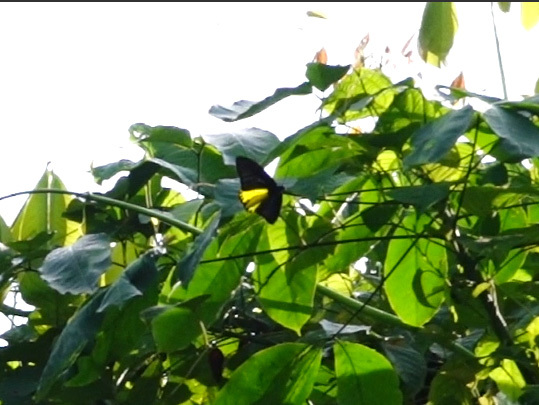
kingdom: Animalia
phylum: Arthropoda
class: Insecta
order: Lepidoptera
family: Papilionidae
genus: Troides
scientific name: Troides helena
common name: Common birdwing
